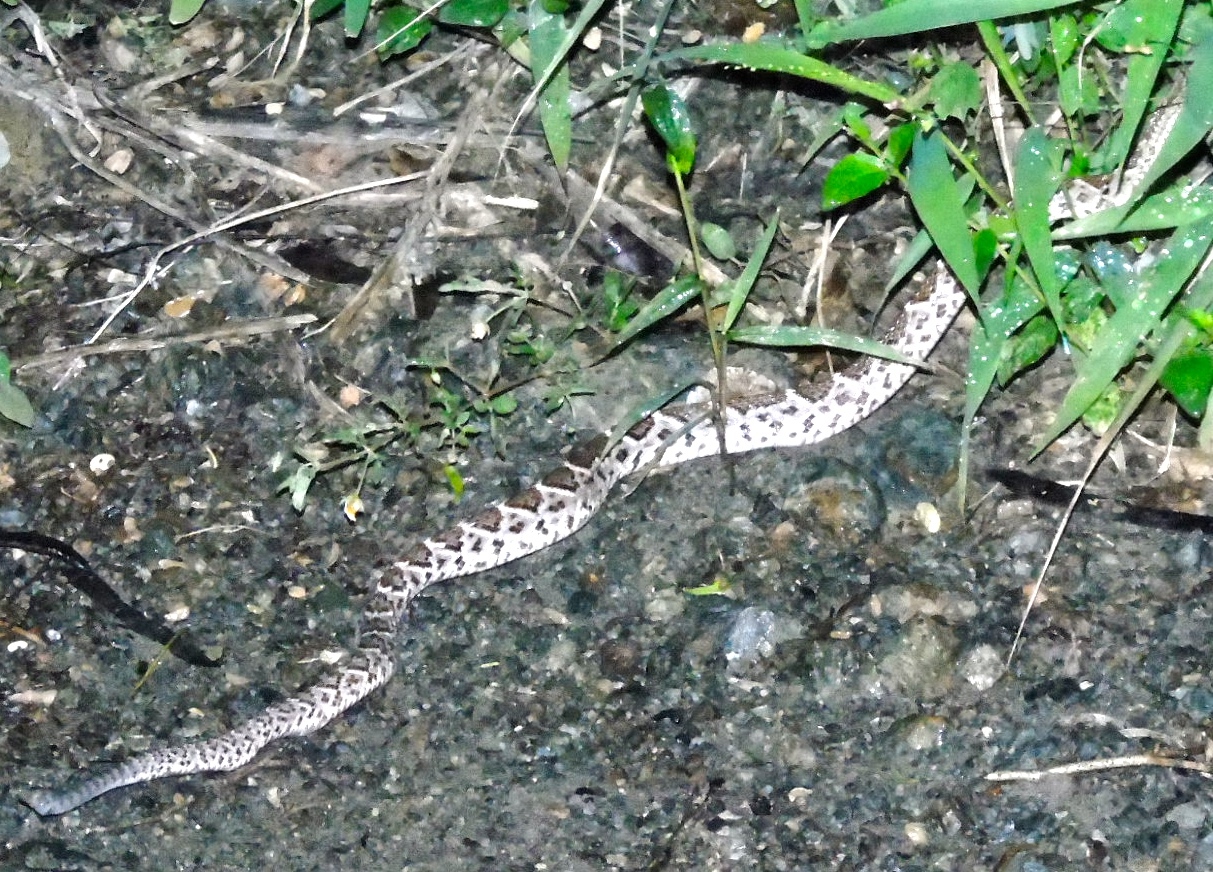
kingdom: Animalia
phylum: Chordata
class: Squamata
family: Viperidae
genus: Crotalus
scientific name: Crotalus basiliscus
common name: Basilisk rattlesnake
